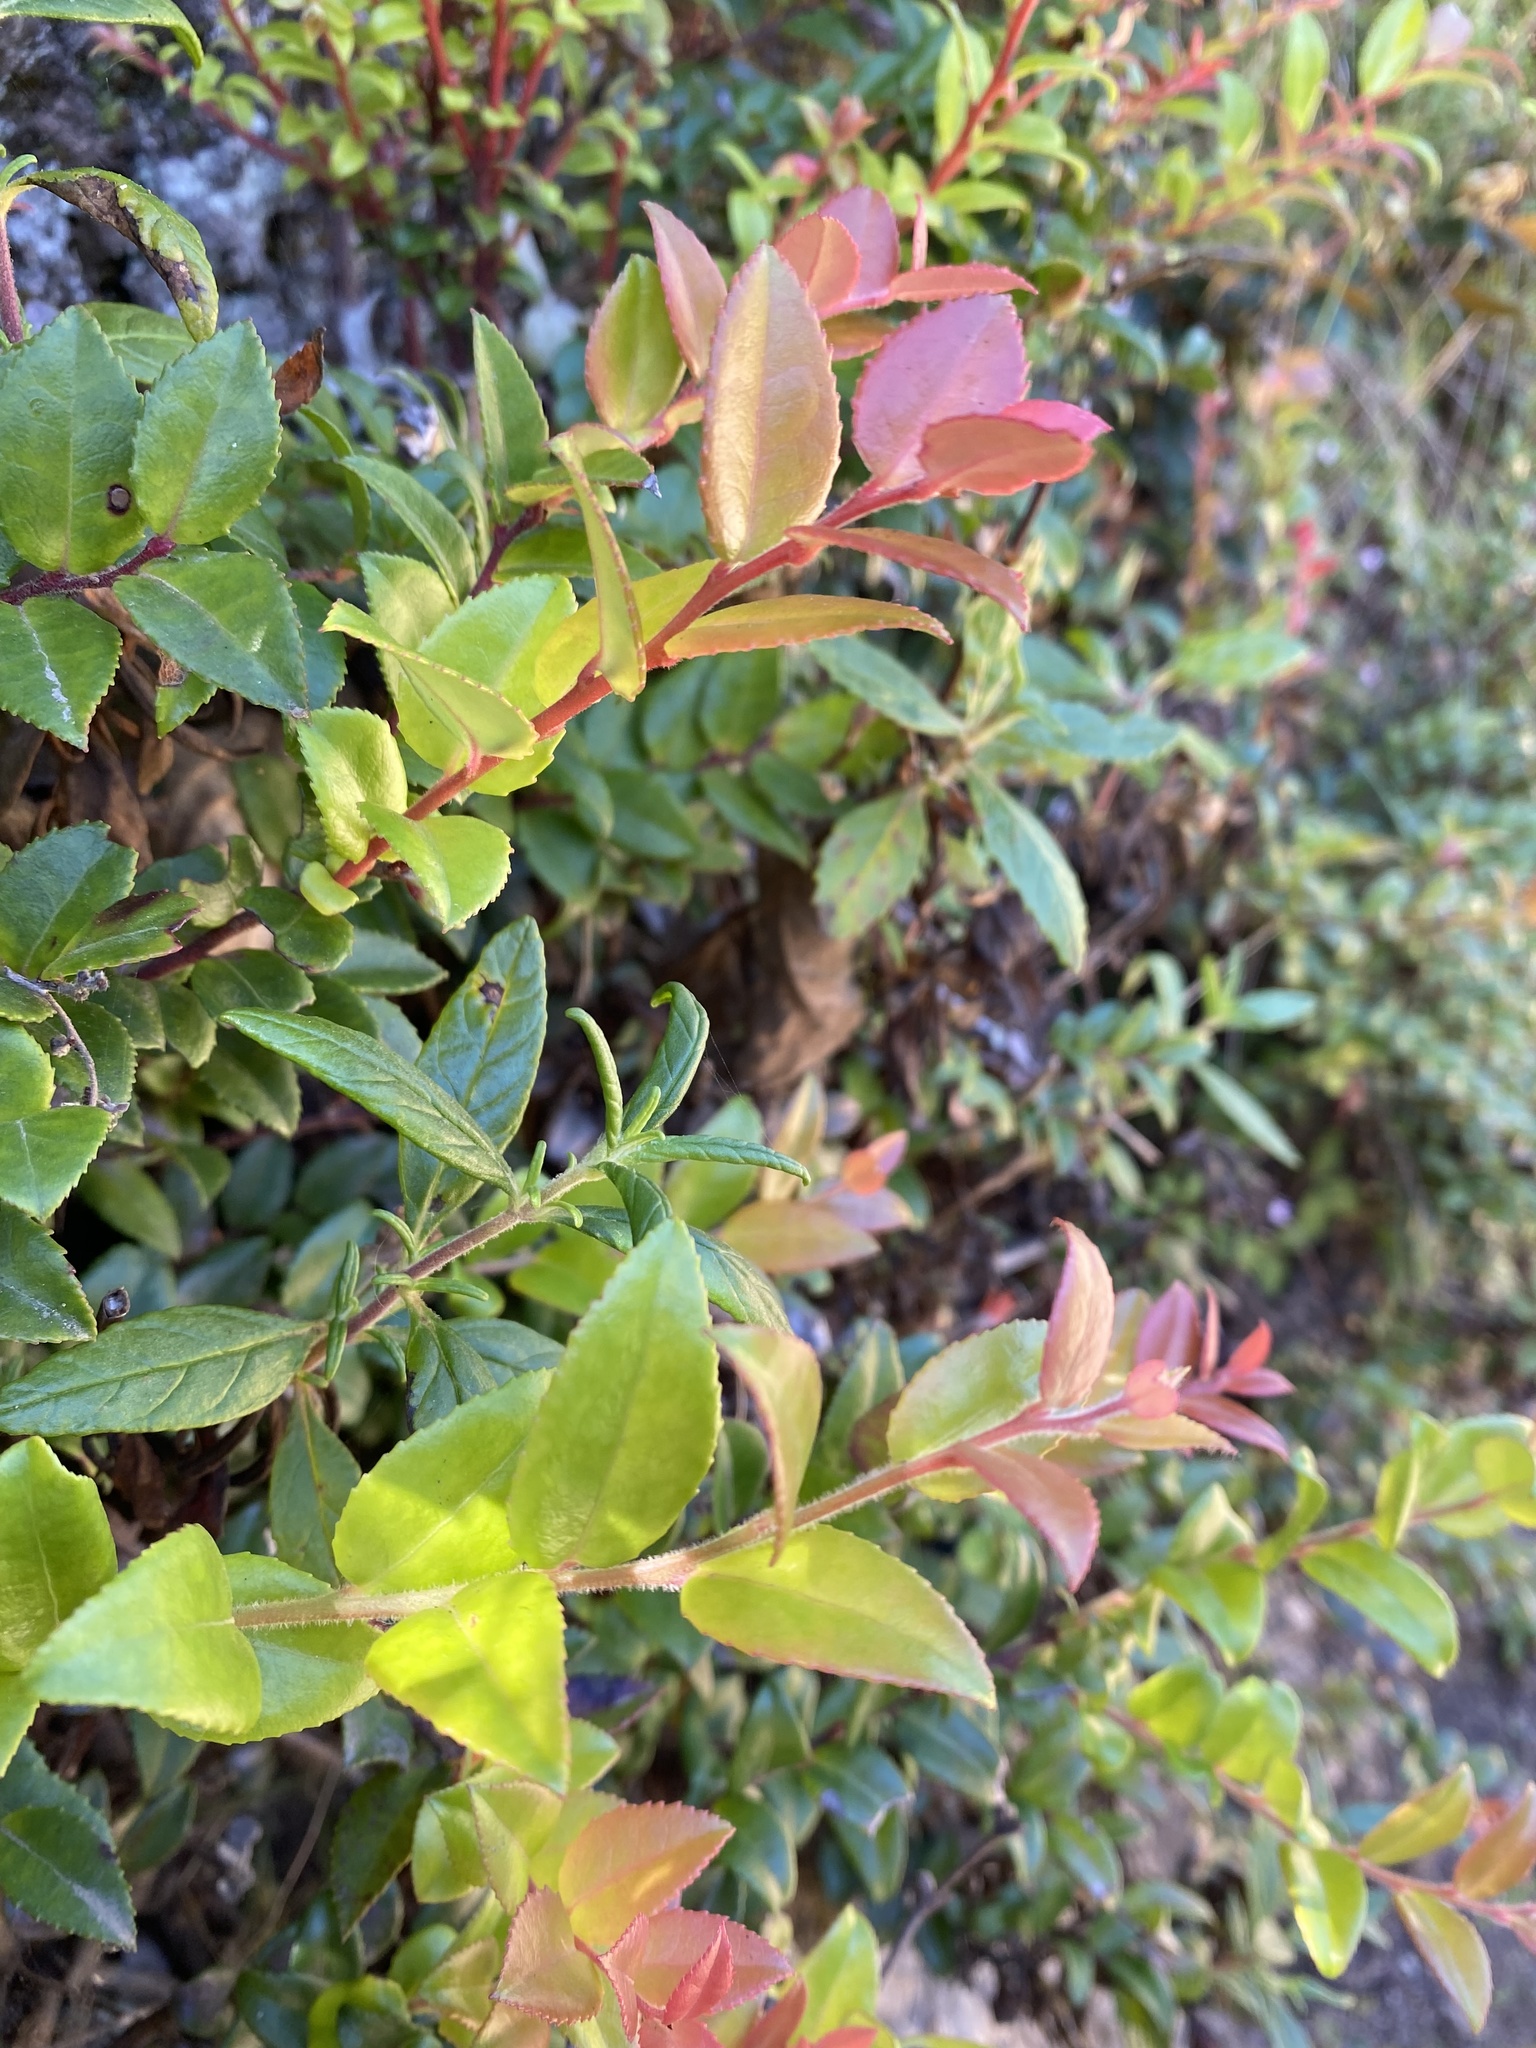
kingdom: Plantae
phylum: Tracheophyta
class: Magnoliopsida
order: Ericales
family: Ericaceae
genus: Vaccinium
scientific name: Vaccinium ovatum
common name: California-huckleberry
